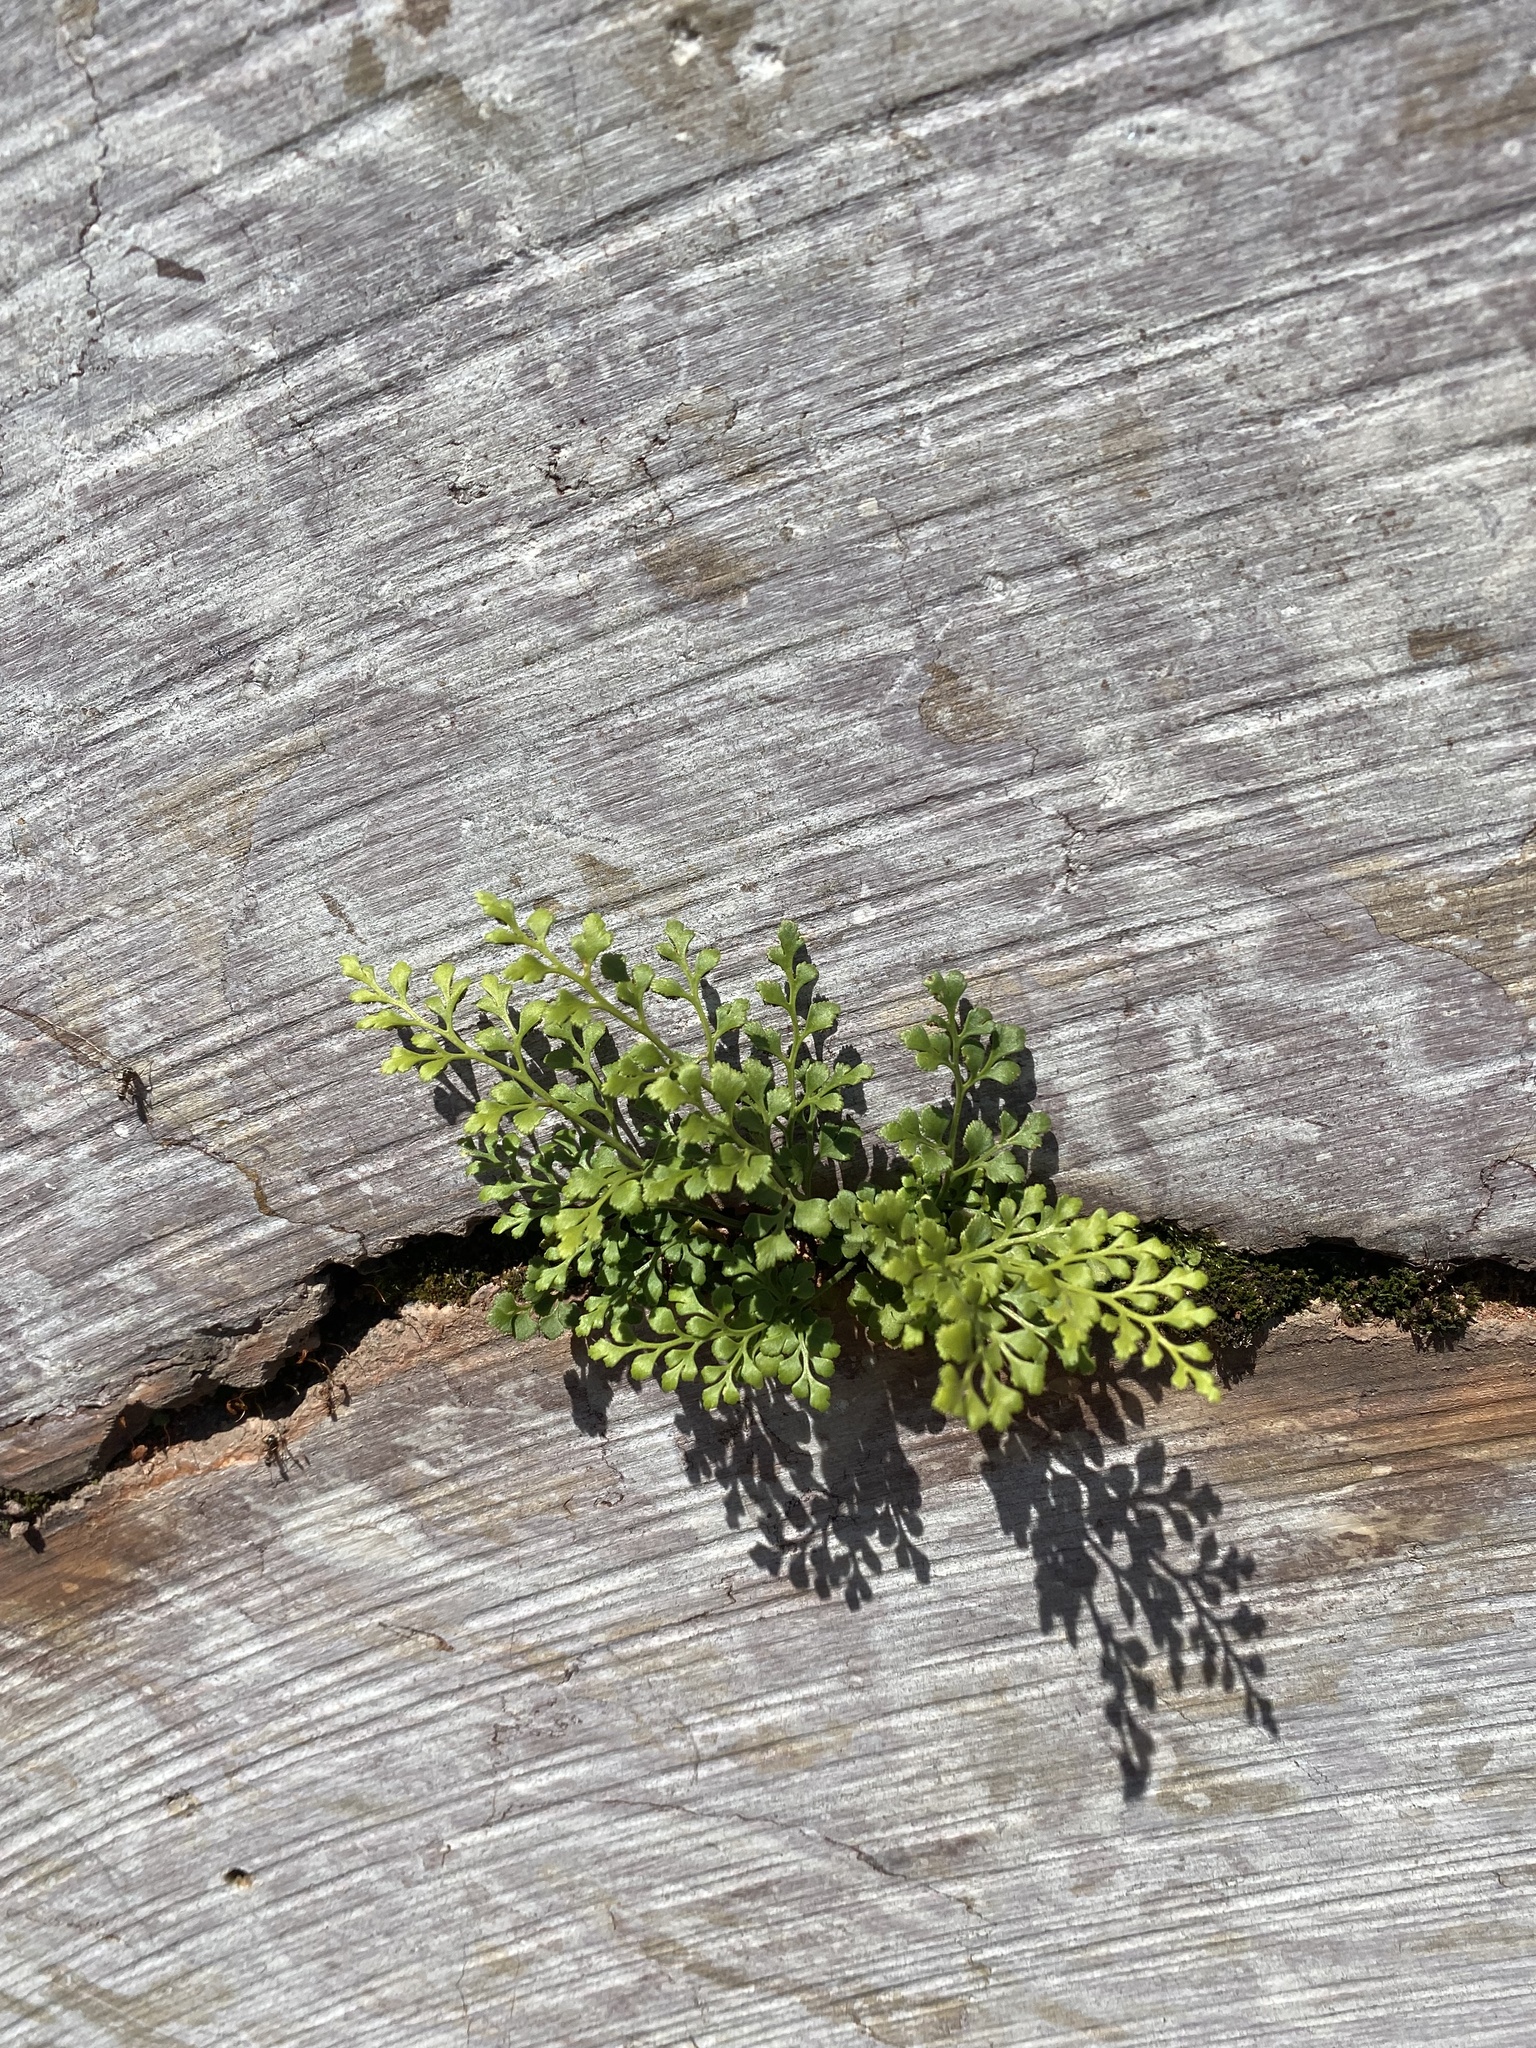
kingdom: Plantae
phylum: Tracheophyta
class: Polypodiopsida
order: Polypodiales
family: Aspleniaceae
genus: Asplenium
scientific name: Asplenium ruta-muraria
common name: Wall-rue
